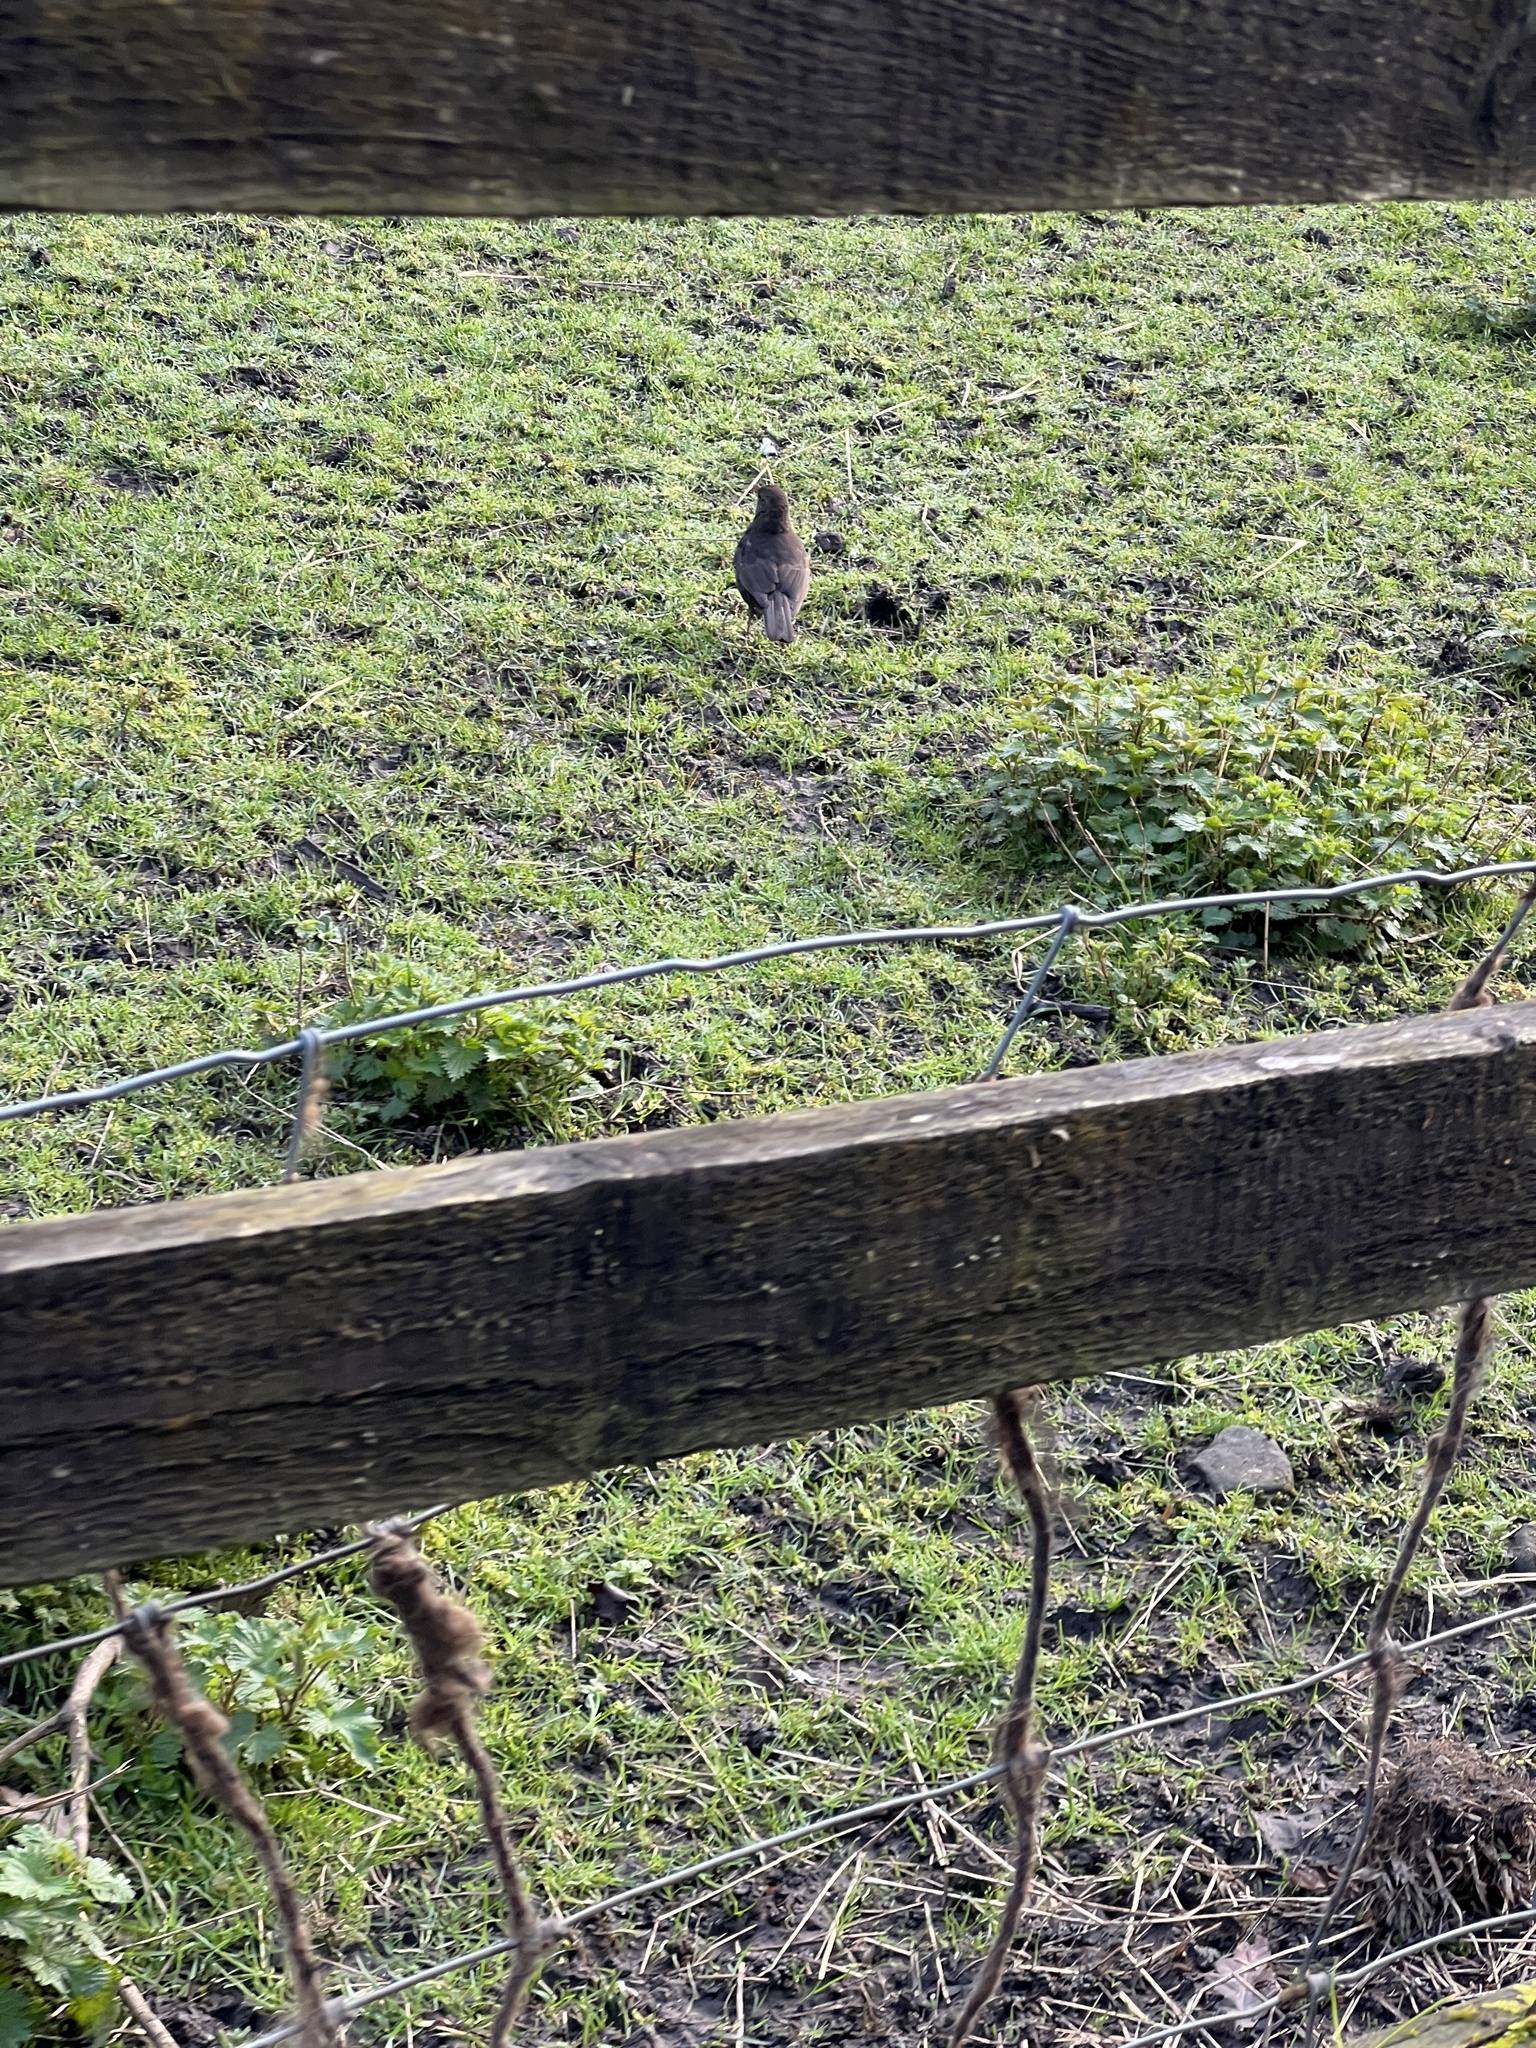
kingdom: Animalia
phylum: Chordata
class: Aves
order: Passeriformes
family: Turdidae
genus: Turdus
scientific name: Turdus merula
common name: Common blackbird
